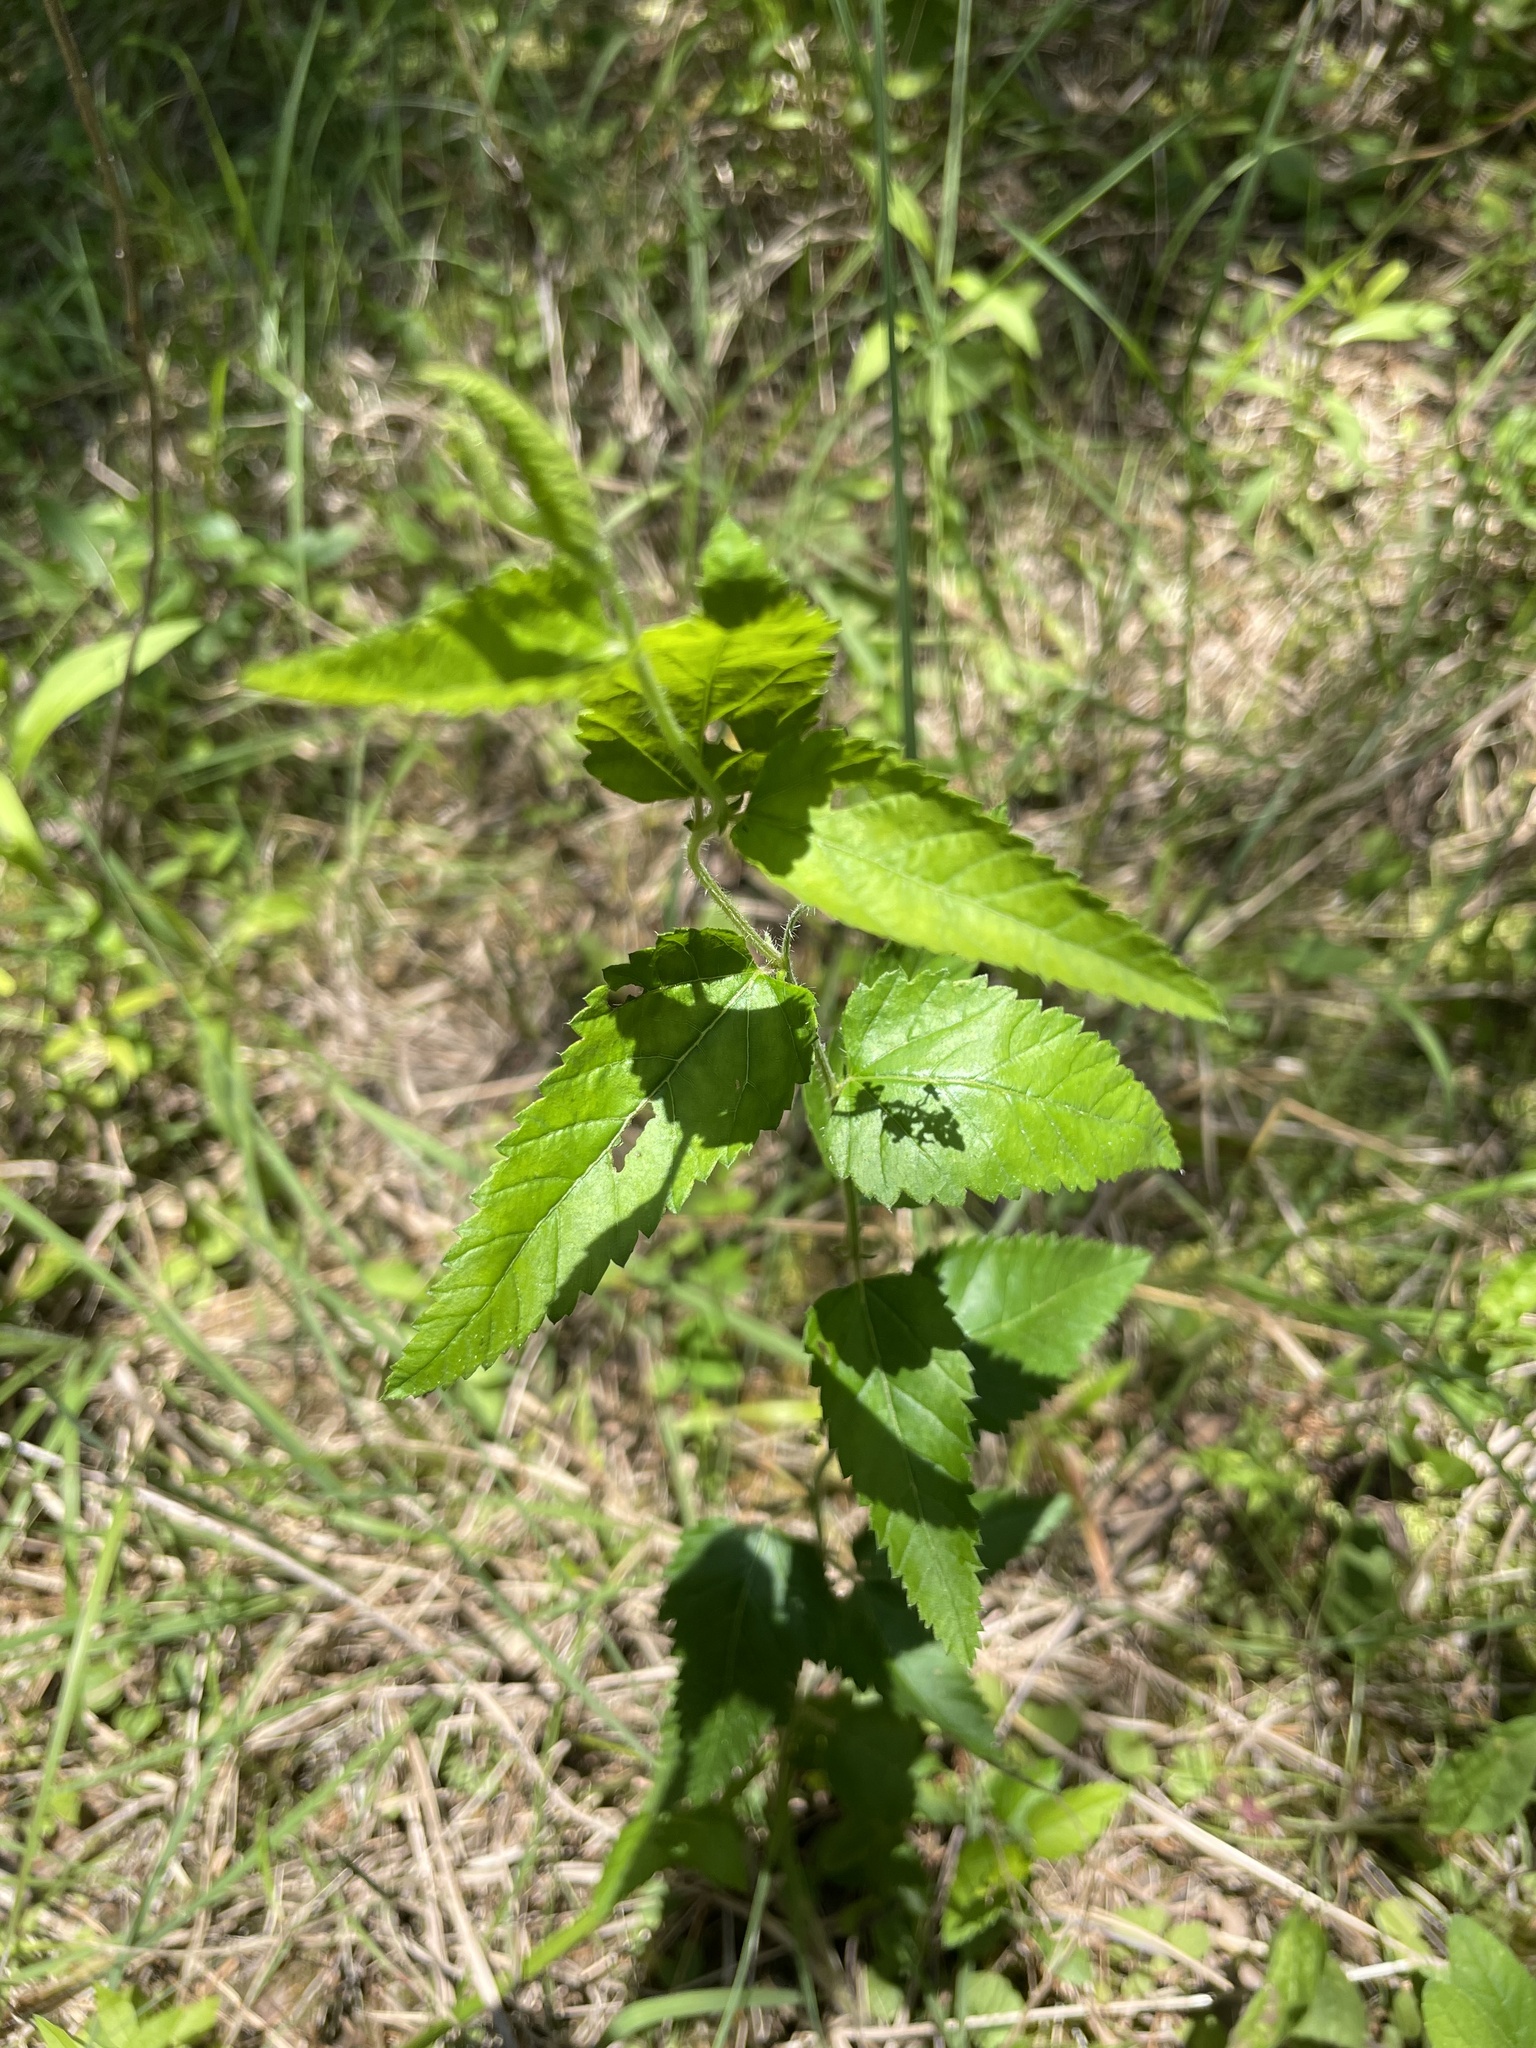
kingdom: Plantae
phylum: Tracheophyta
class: Magnoliopsida
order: Malpighiales
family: Euphorbiaceae
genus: Tragia
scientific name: Tragia urticifolia
